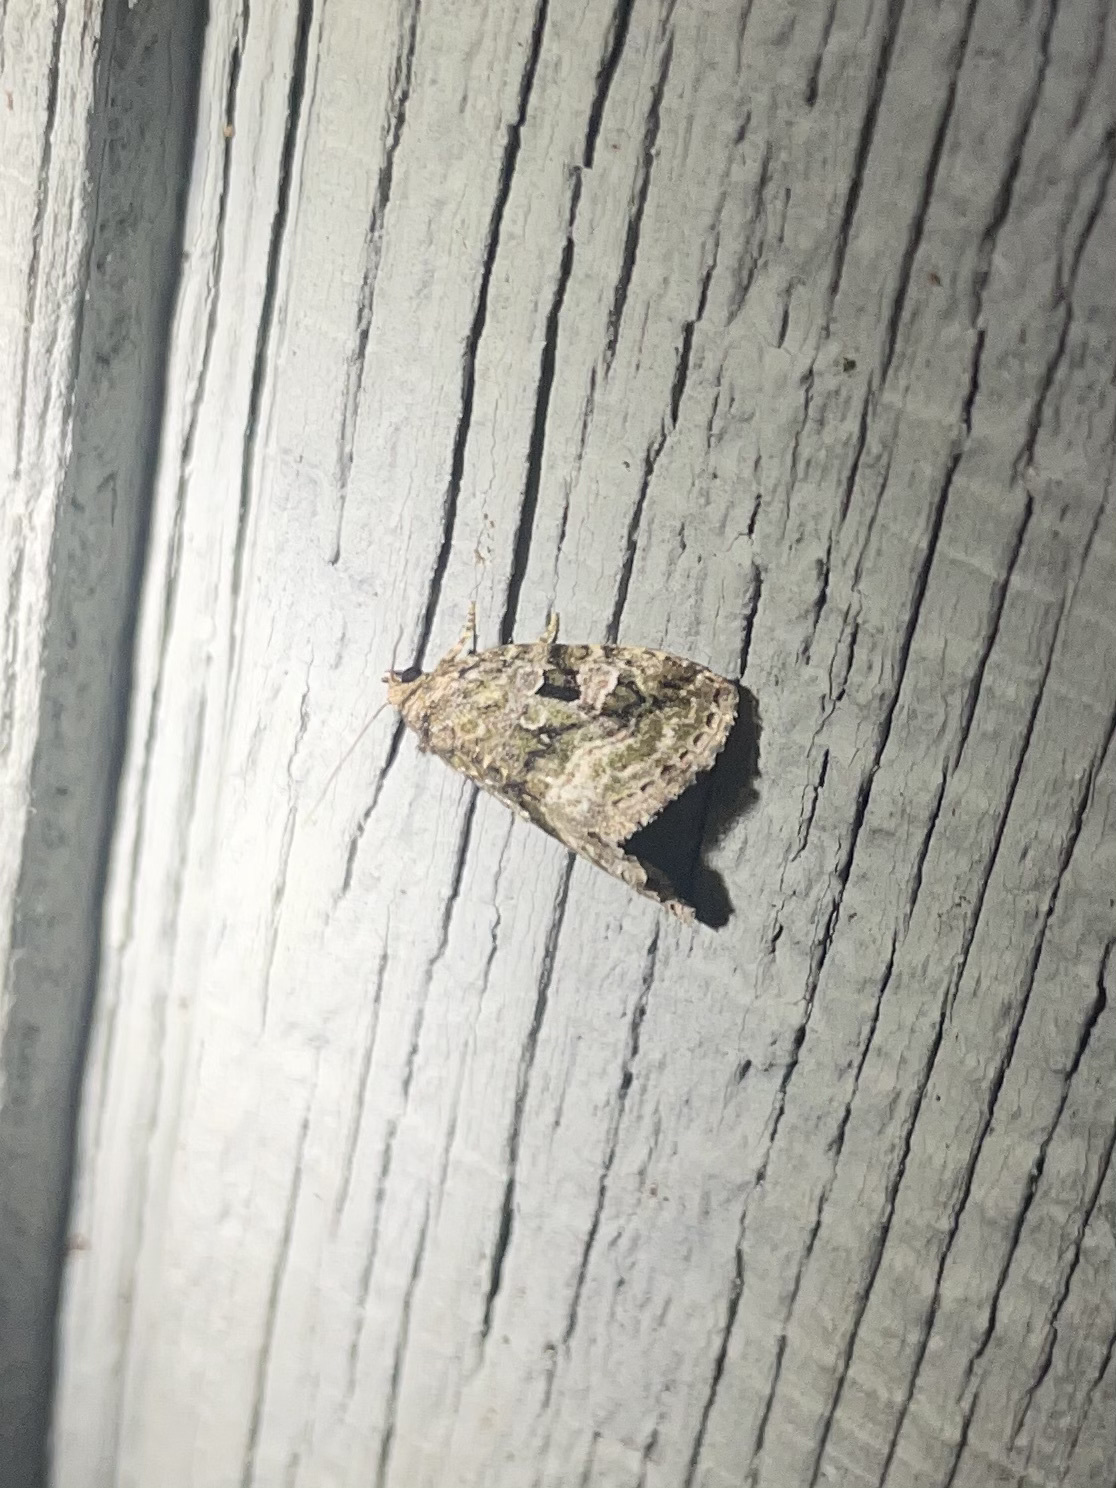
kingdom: Animalia
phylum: Arthropoda
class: Insecta
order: Lepidoptera
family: Noctuidae
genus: Protodeltote
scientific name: Protodeltote muscosula
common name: Large mossy glyph
